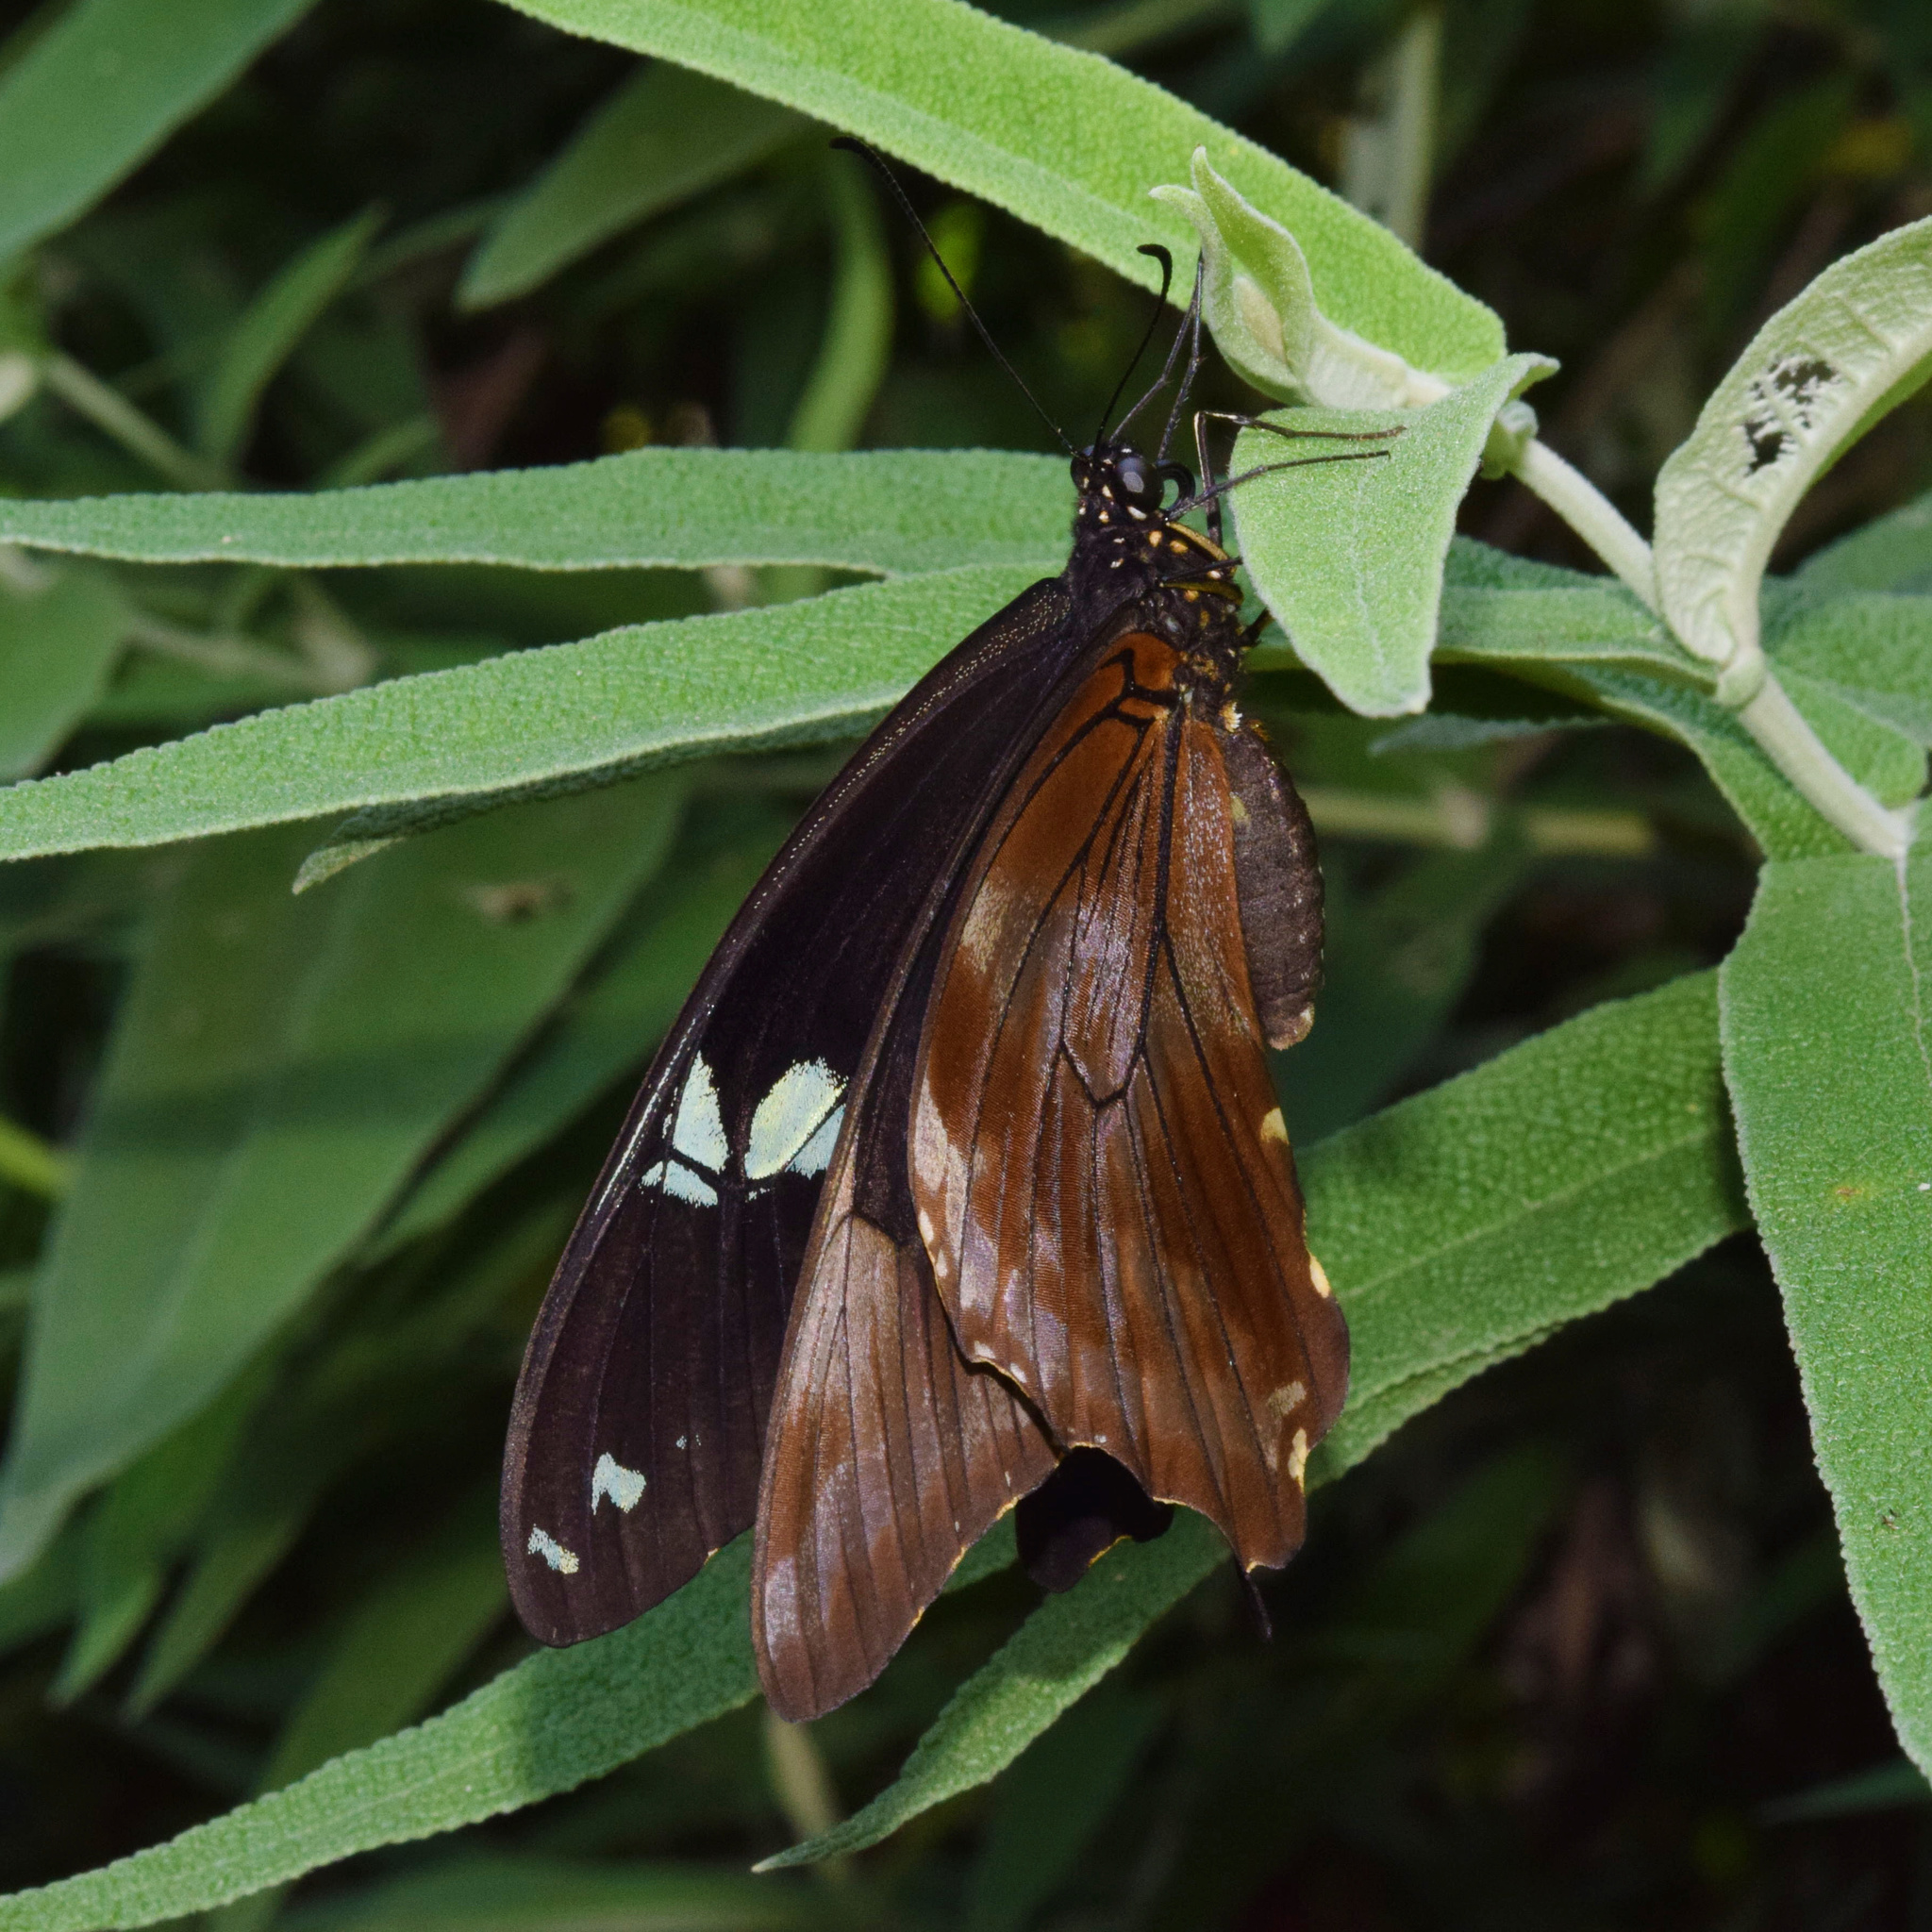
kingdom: Animalia
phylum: Arthropoda
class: Insecta
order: Lepidoptera
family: Papilionidae
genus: Papilio
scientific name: Papilio nireus
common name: Greenbanded swallowtail
